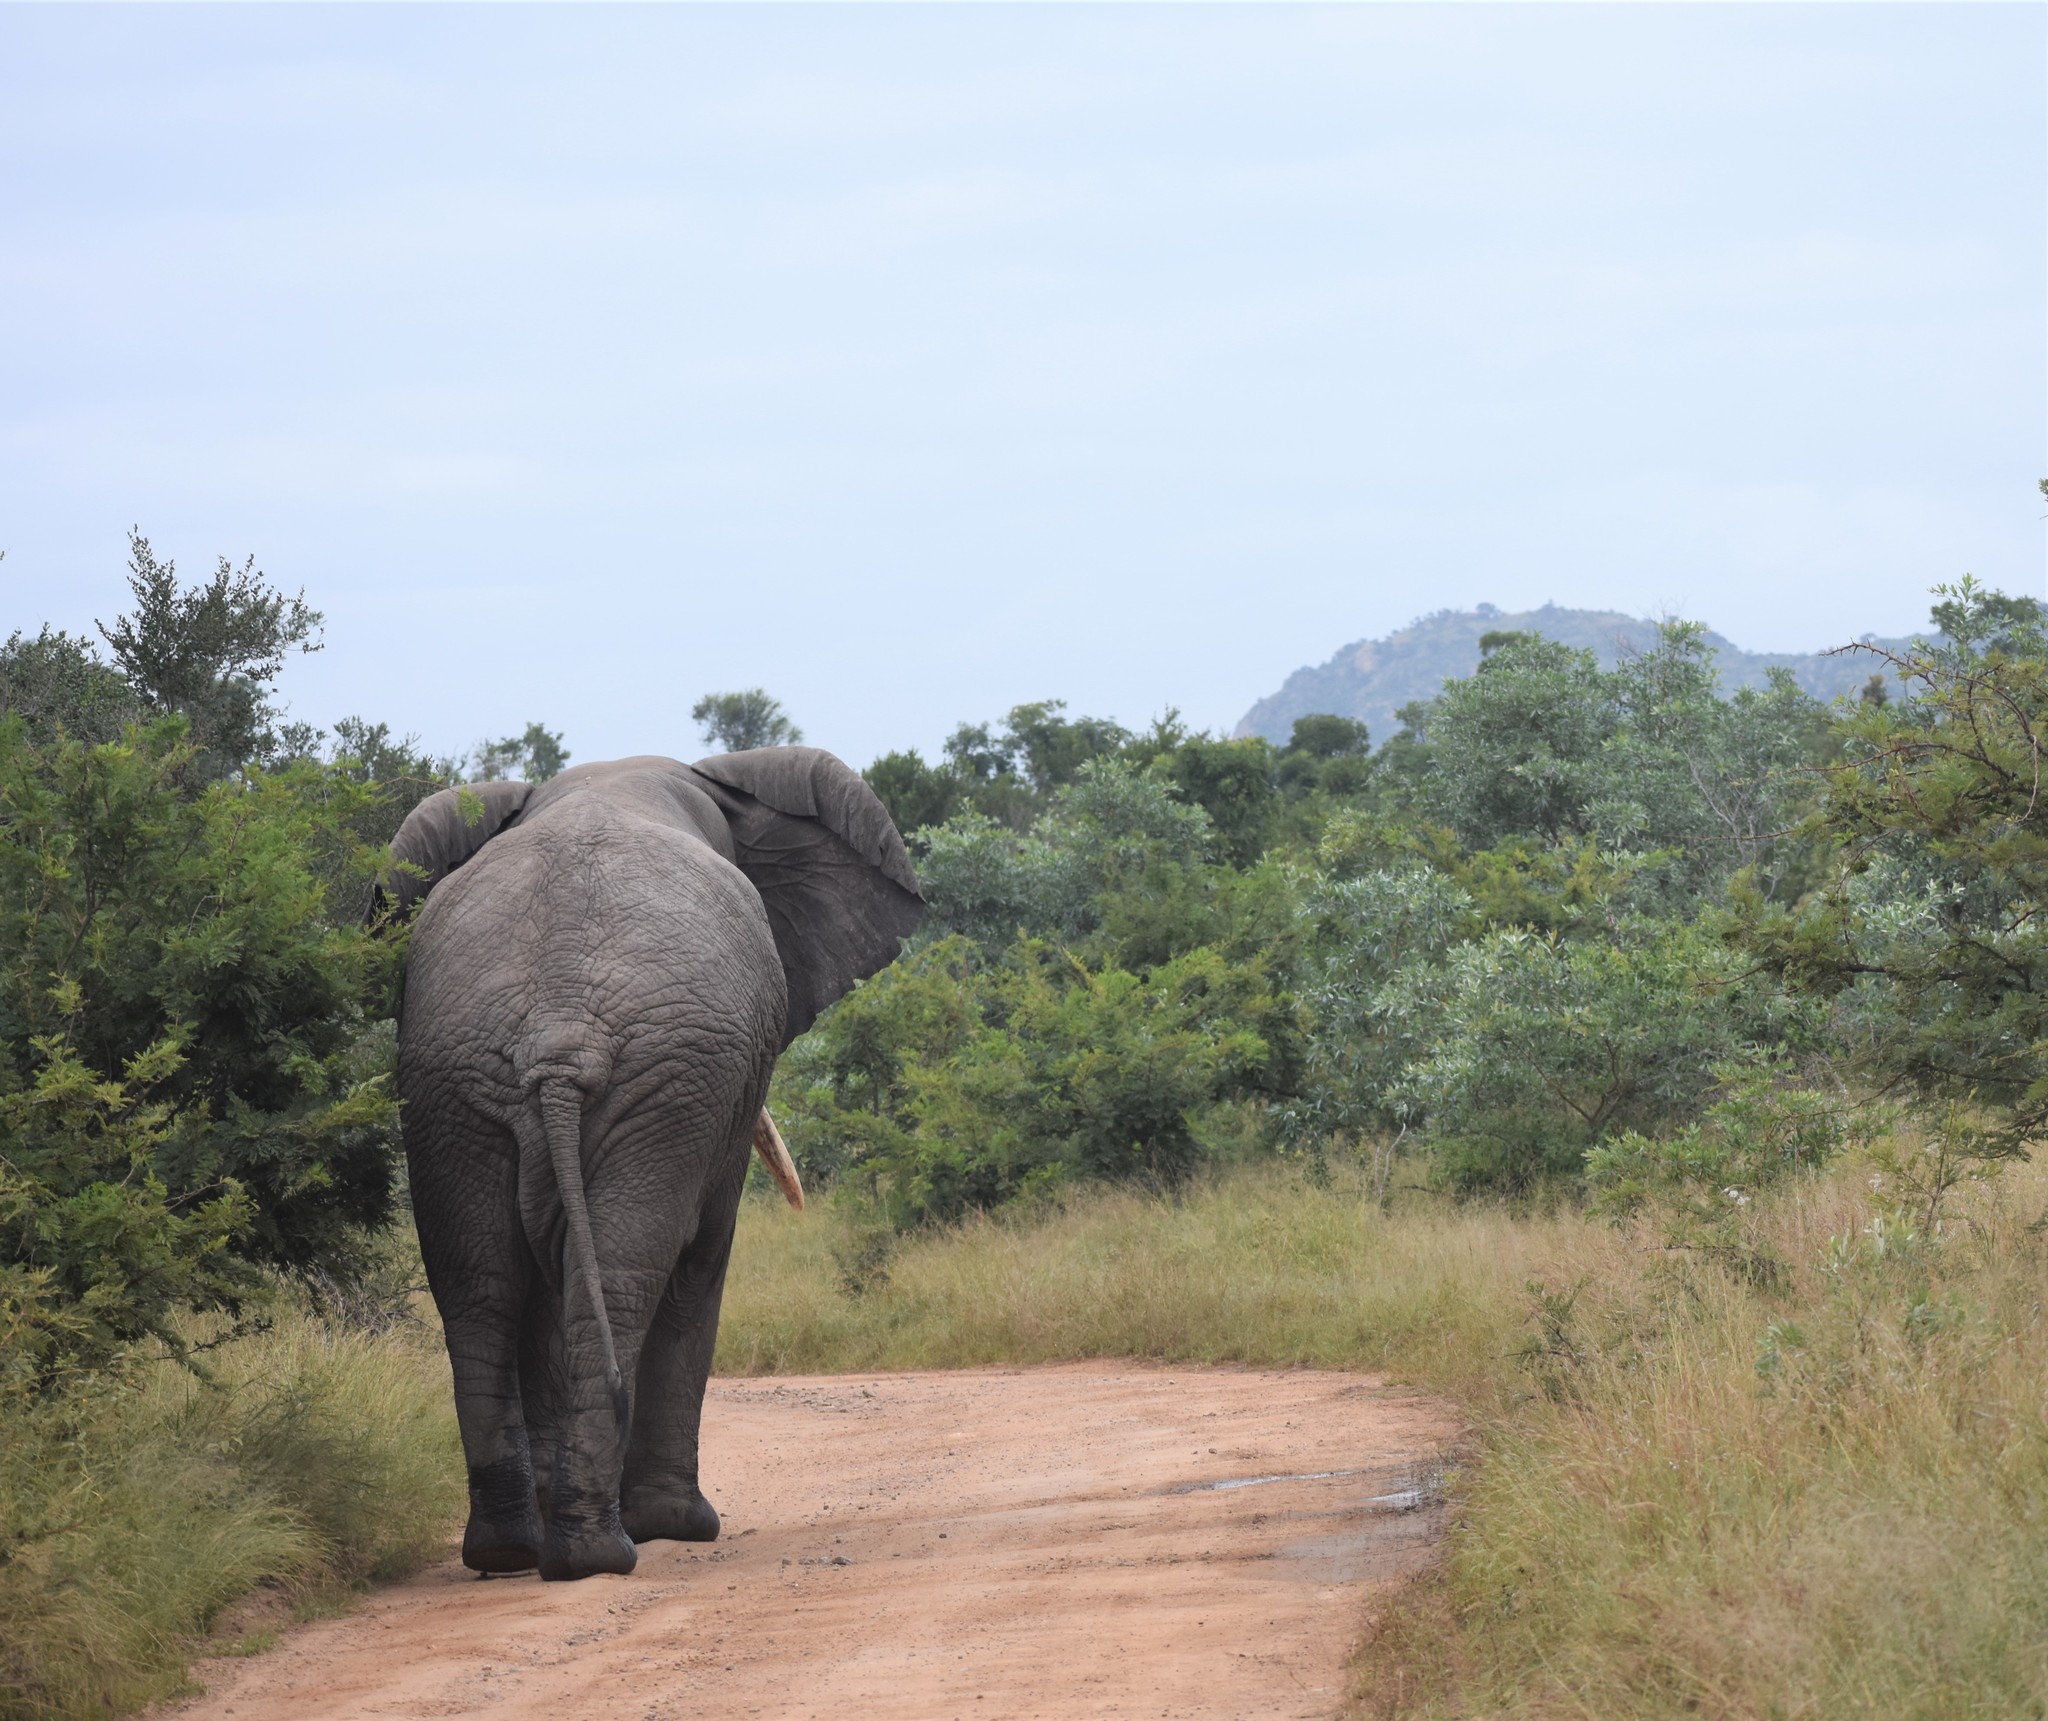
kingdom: Animalia
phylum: Chordata
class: Mammalia
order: Proboscidea
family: Elephantidae
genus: Loxodonta
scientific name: Loxodonta africana
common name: African elephant
